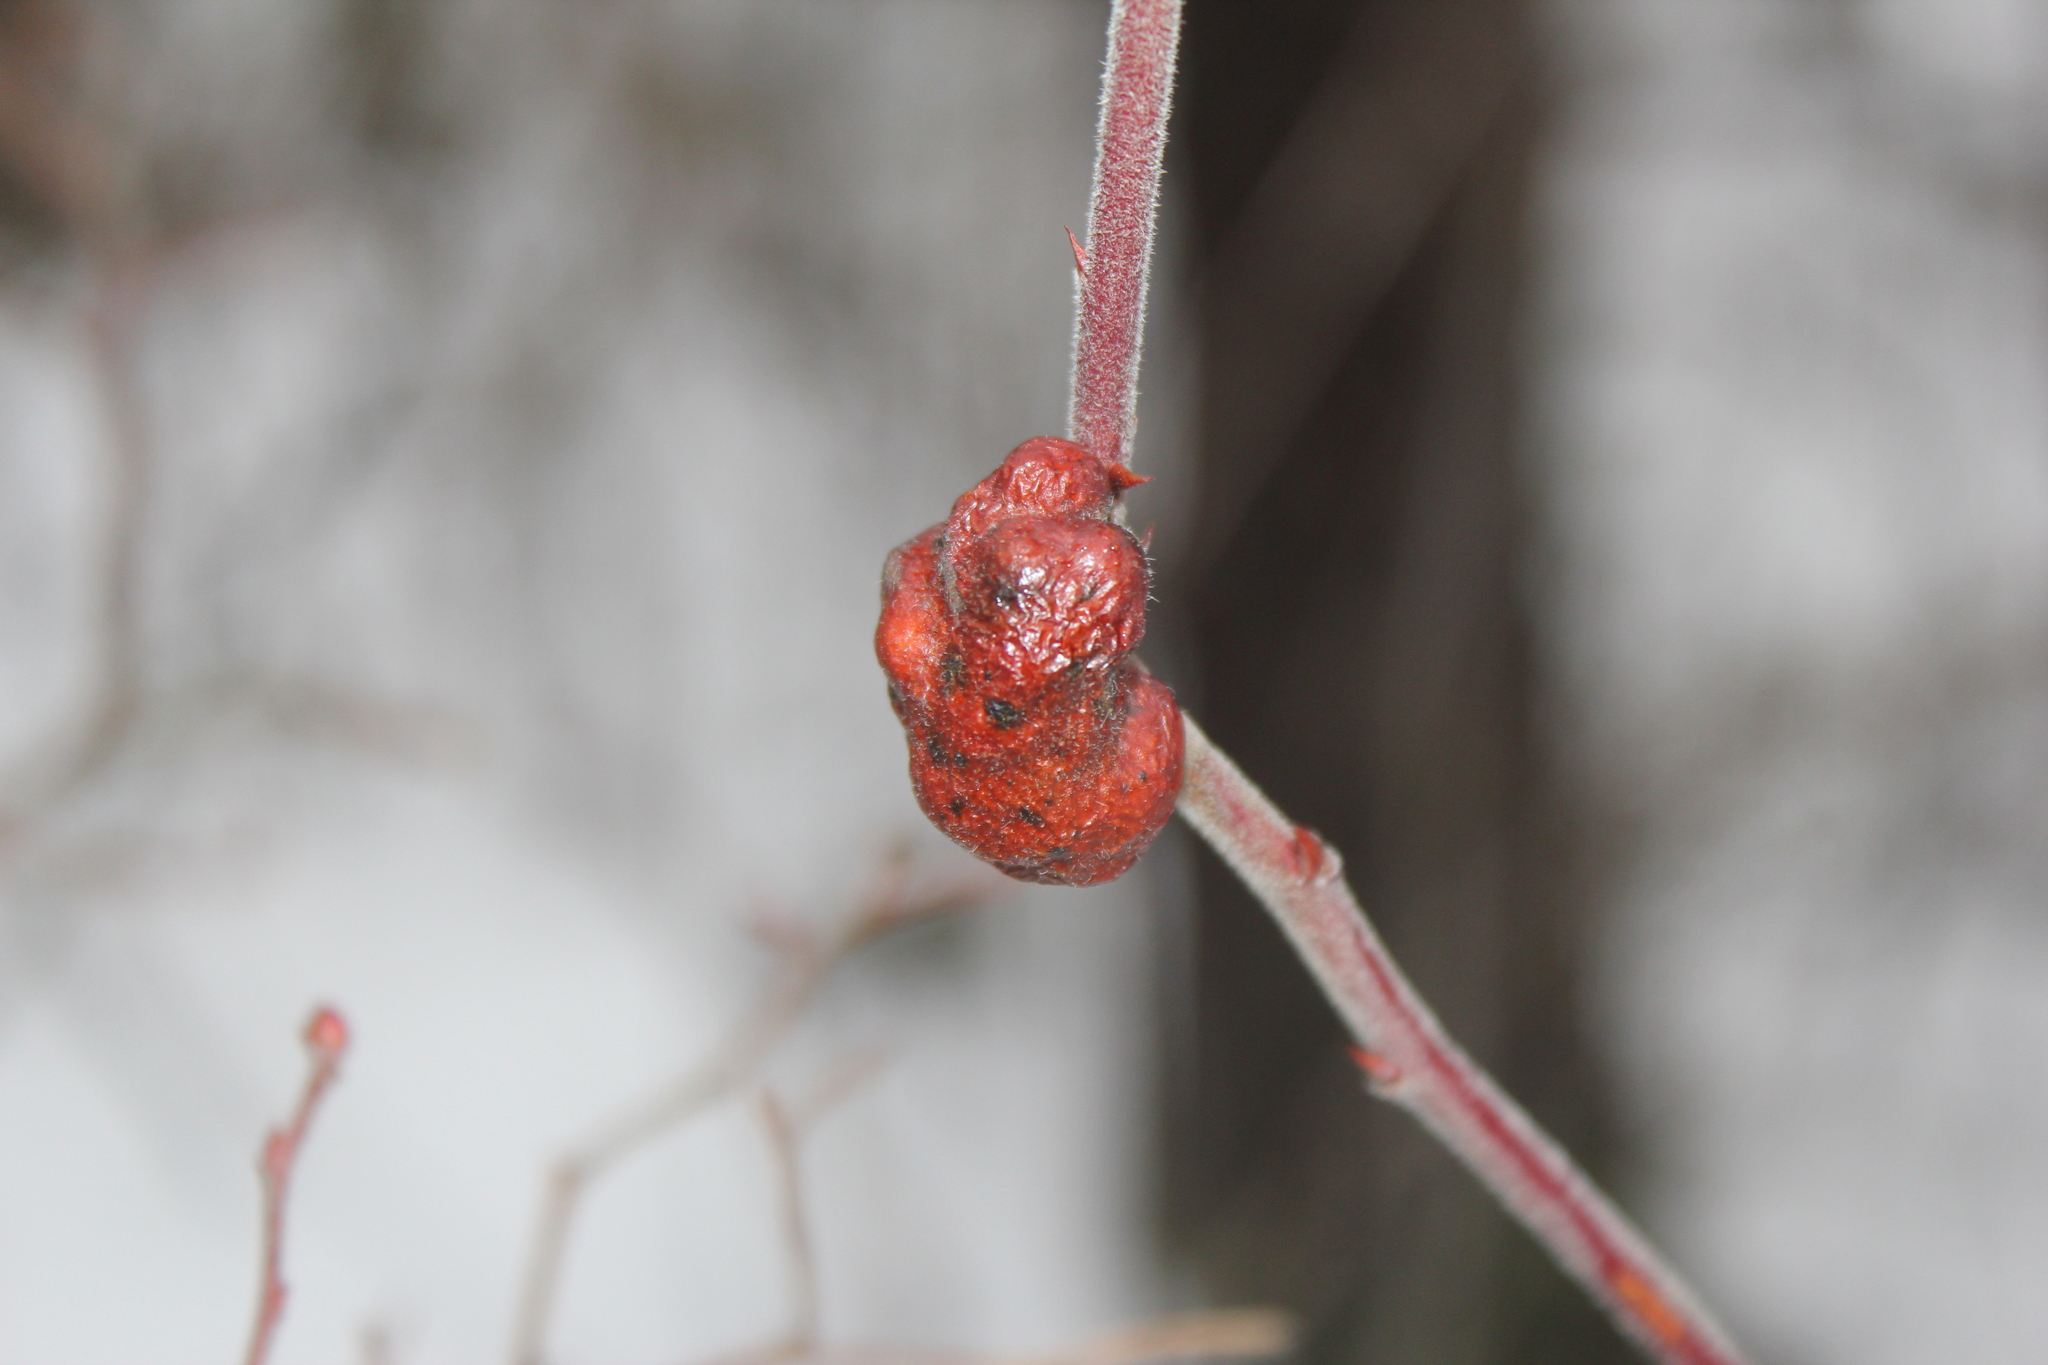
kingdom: Animalia
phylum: Arthropoda
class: Insecta
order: Hymenoptera
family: Pteromalidae
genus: Hemadas
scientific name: Hemadas nubilipennis
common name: Blueberry stem gall wasp
